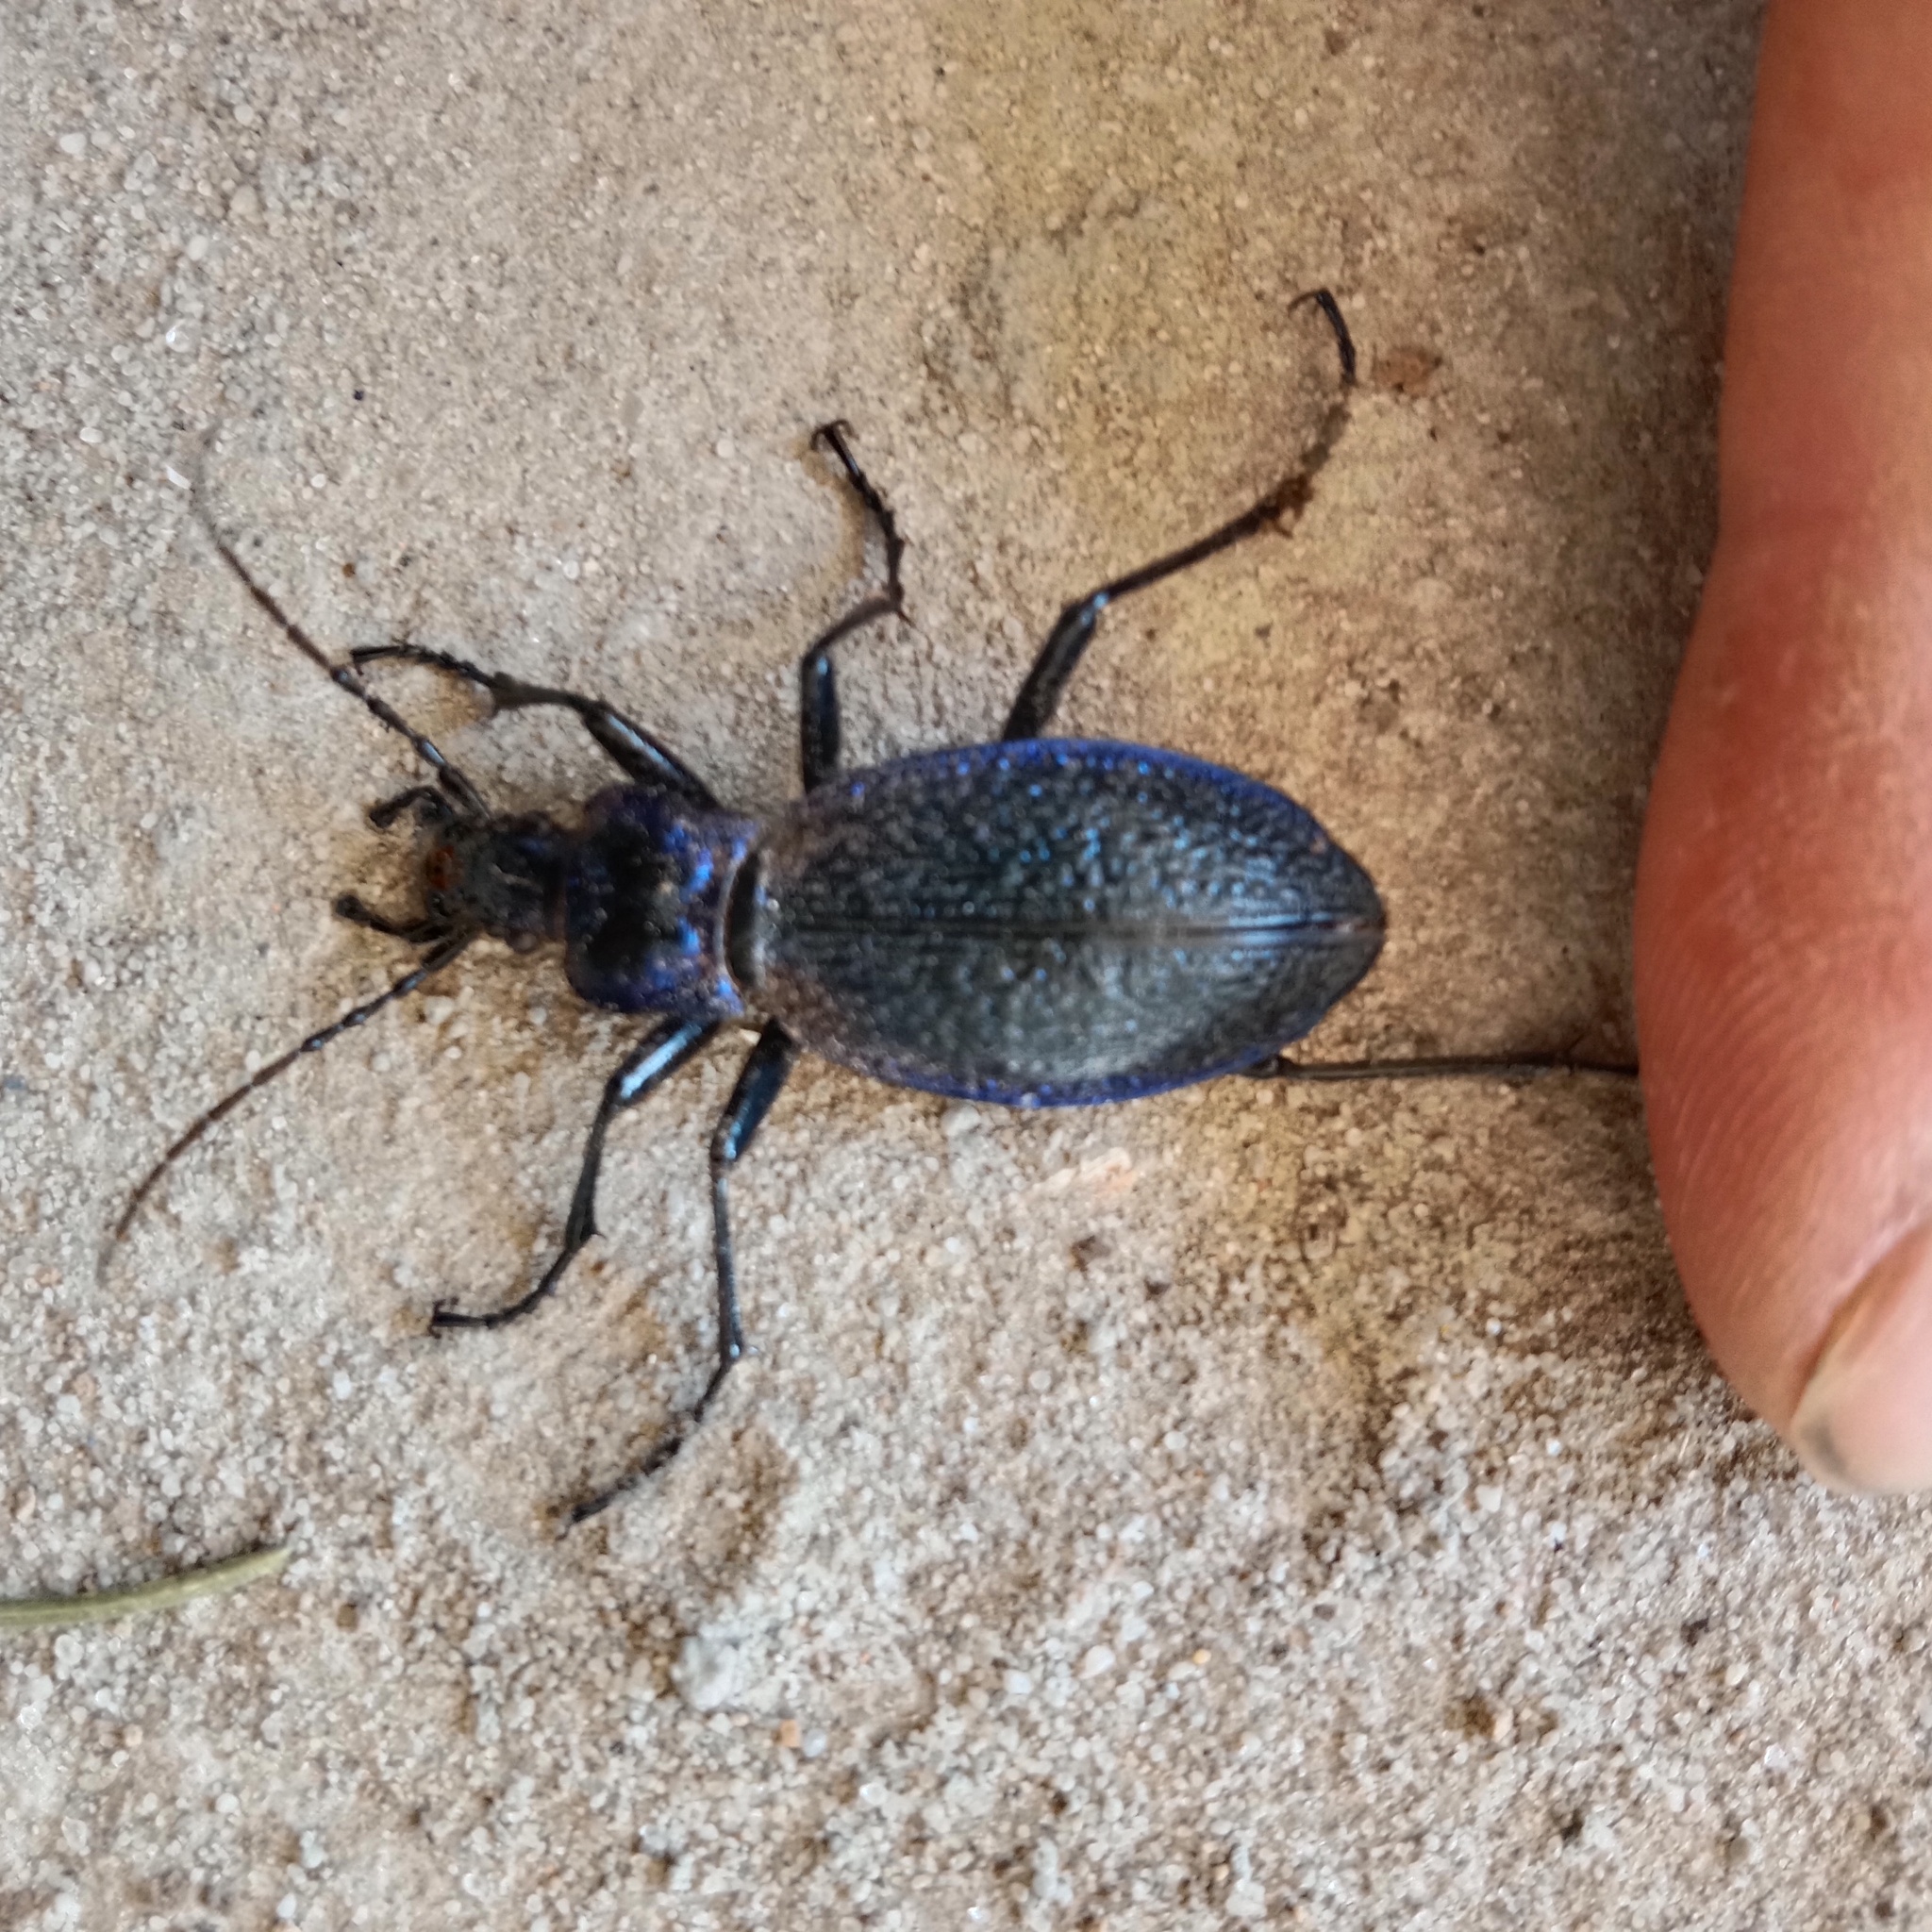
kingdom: Animalia
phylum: Arthropoda
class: Insecta
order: Coleoptera
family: Carabidae
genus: Carabus
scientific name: Carabus intricatus
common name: Blue ground beetle
